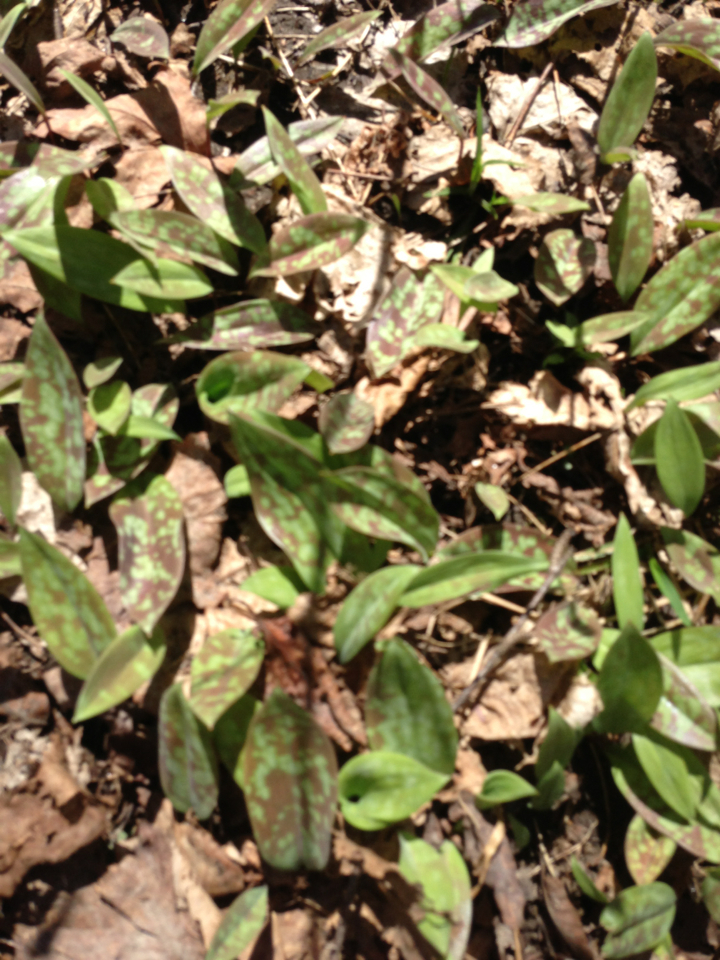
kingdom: Plantae
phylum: Tracheophyta
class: Liliopsida
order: Liliales
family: Liliaceae
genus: Erythronium
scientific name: Erythronium americanum
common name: Yellow adder's-tongue
